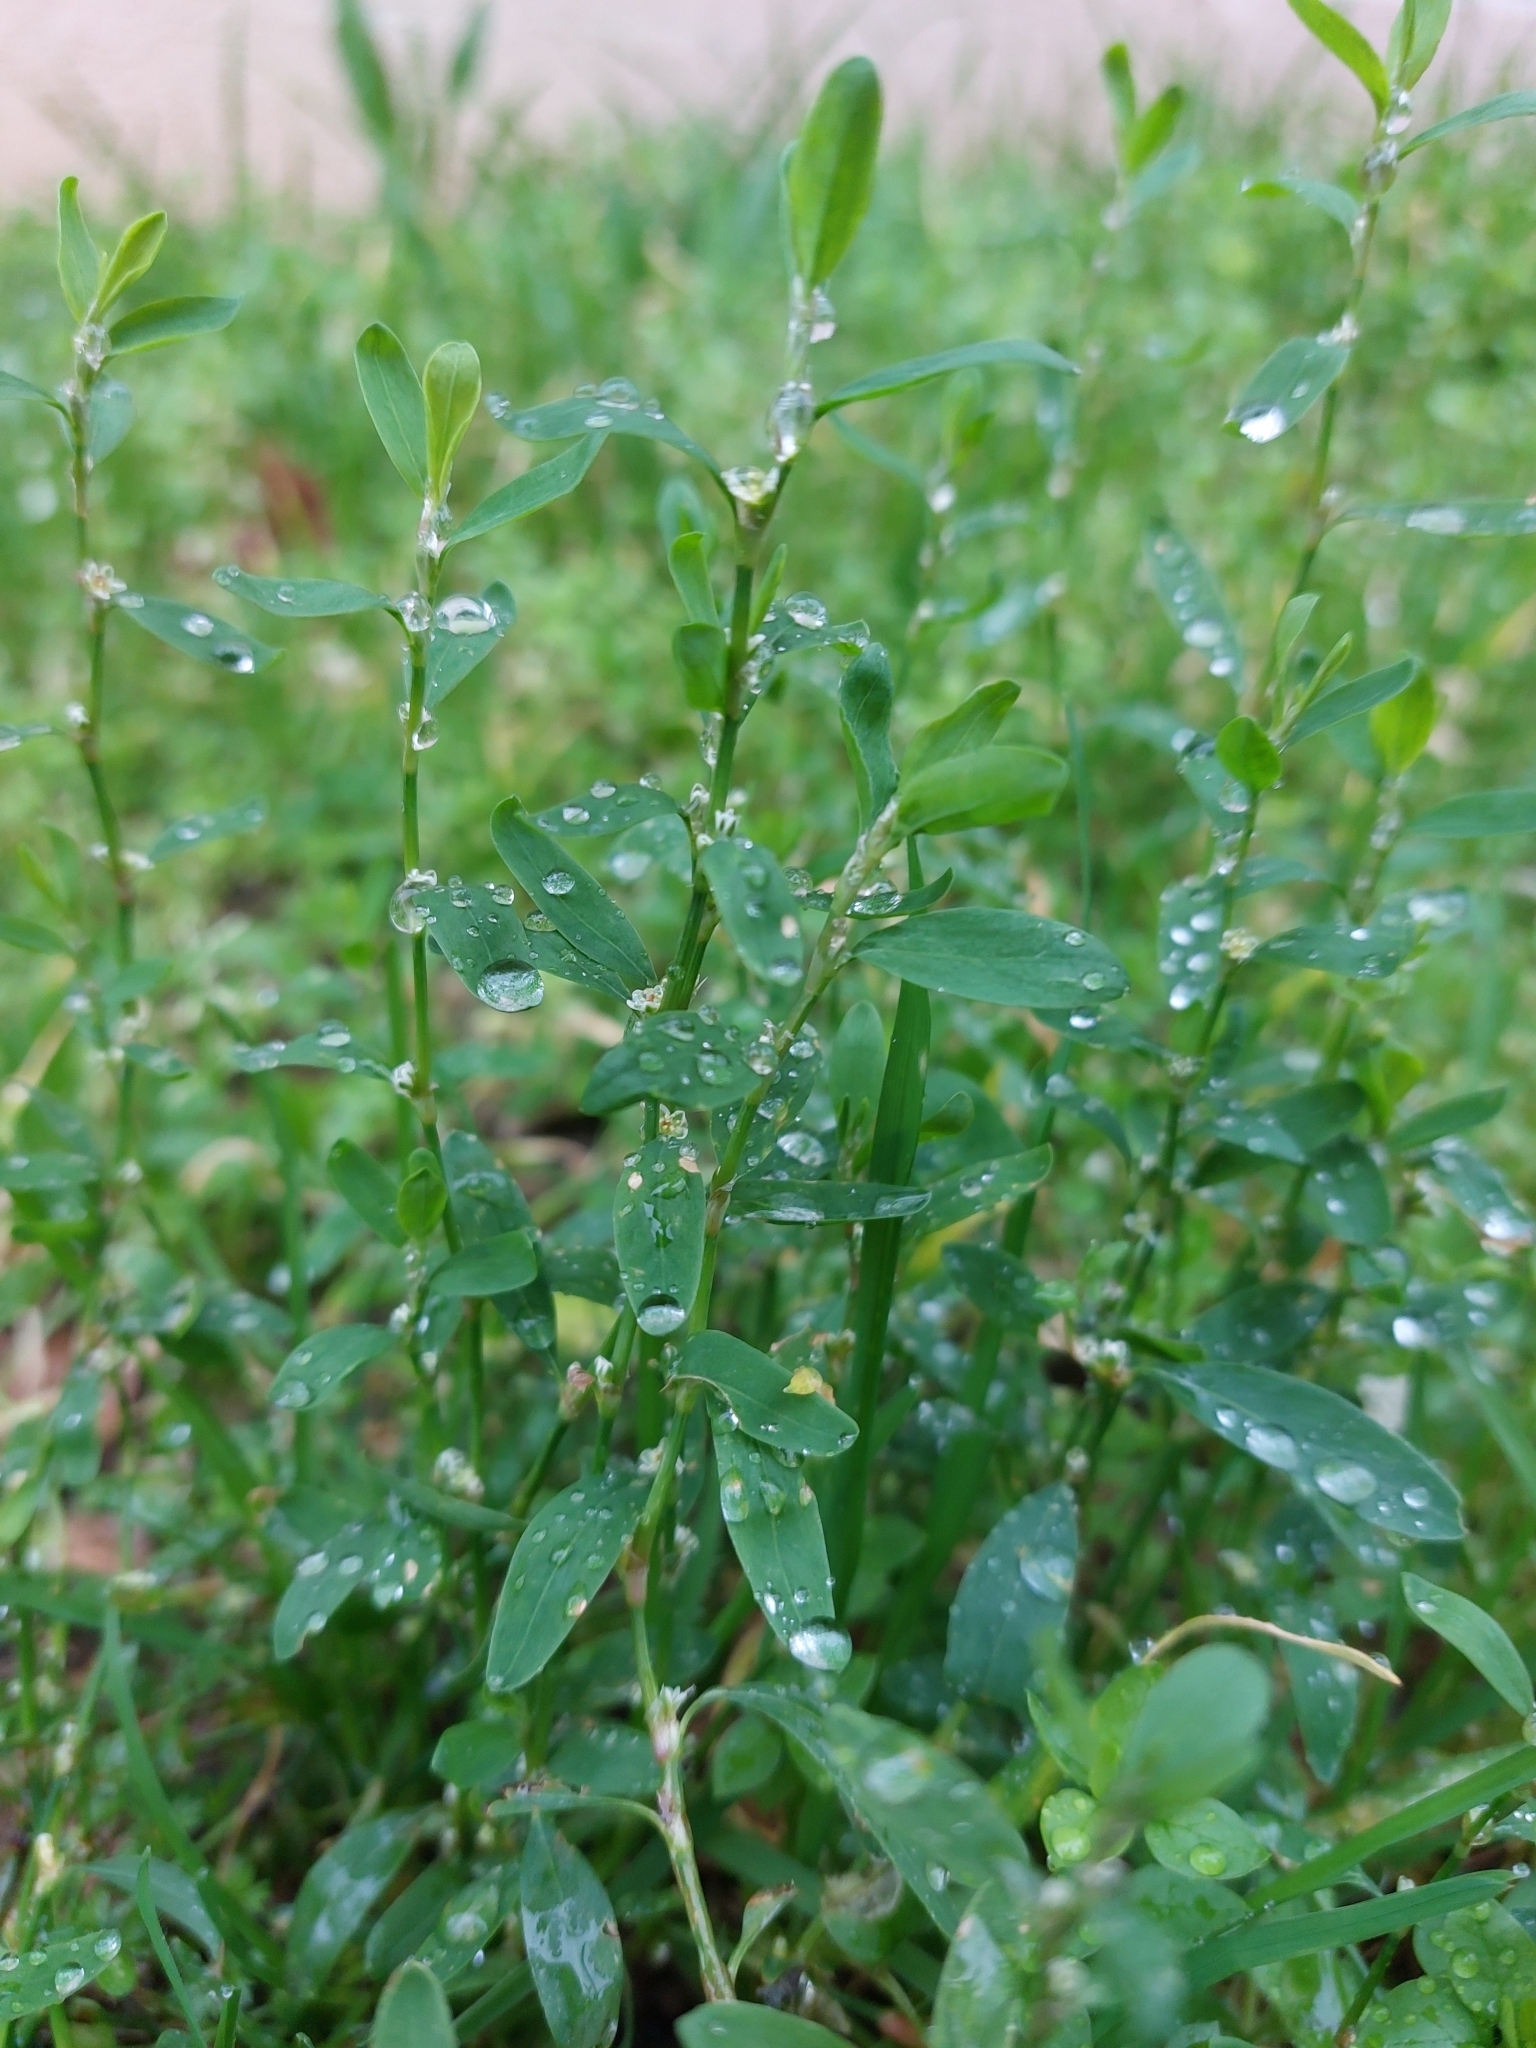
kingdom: Plantae
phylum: Tracheophyta
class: Magnoliopsida
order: Caryophyllales
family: Polygonaceae
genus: Polygonum
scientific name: Polygonum aviculare
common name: Prostrate knotweed
